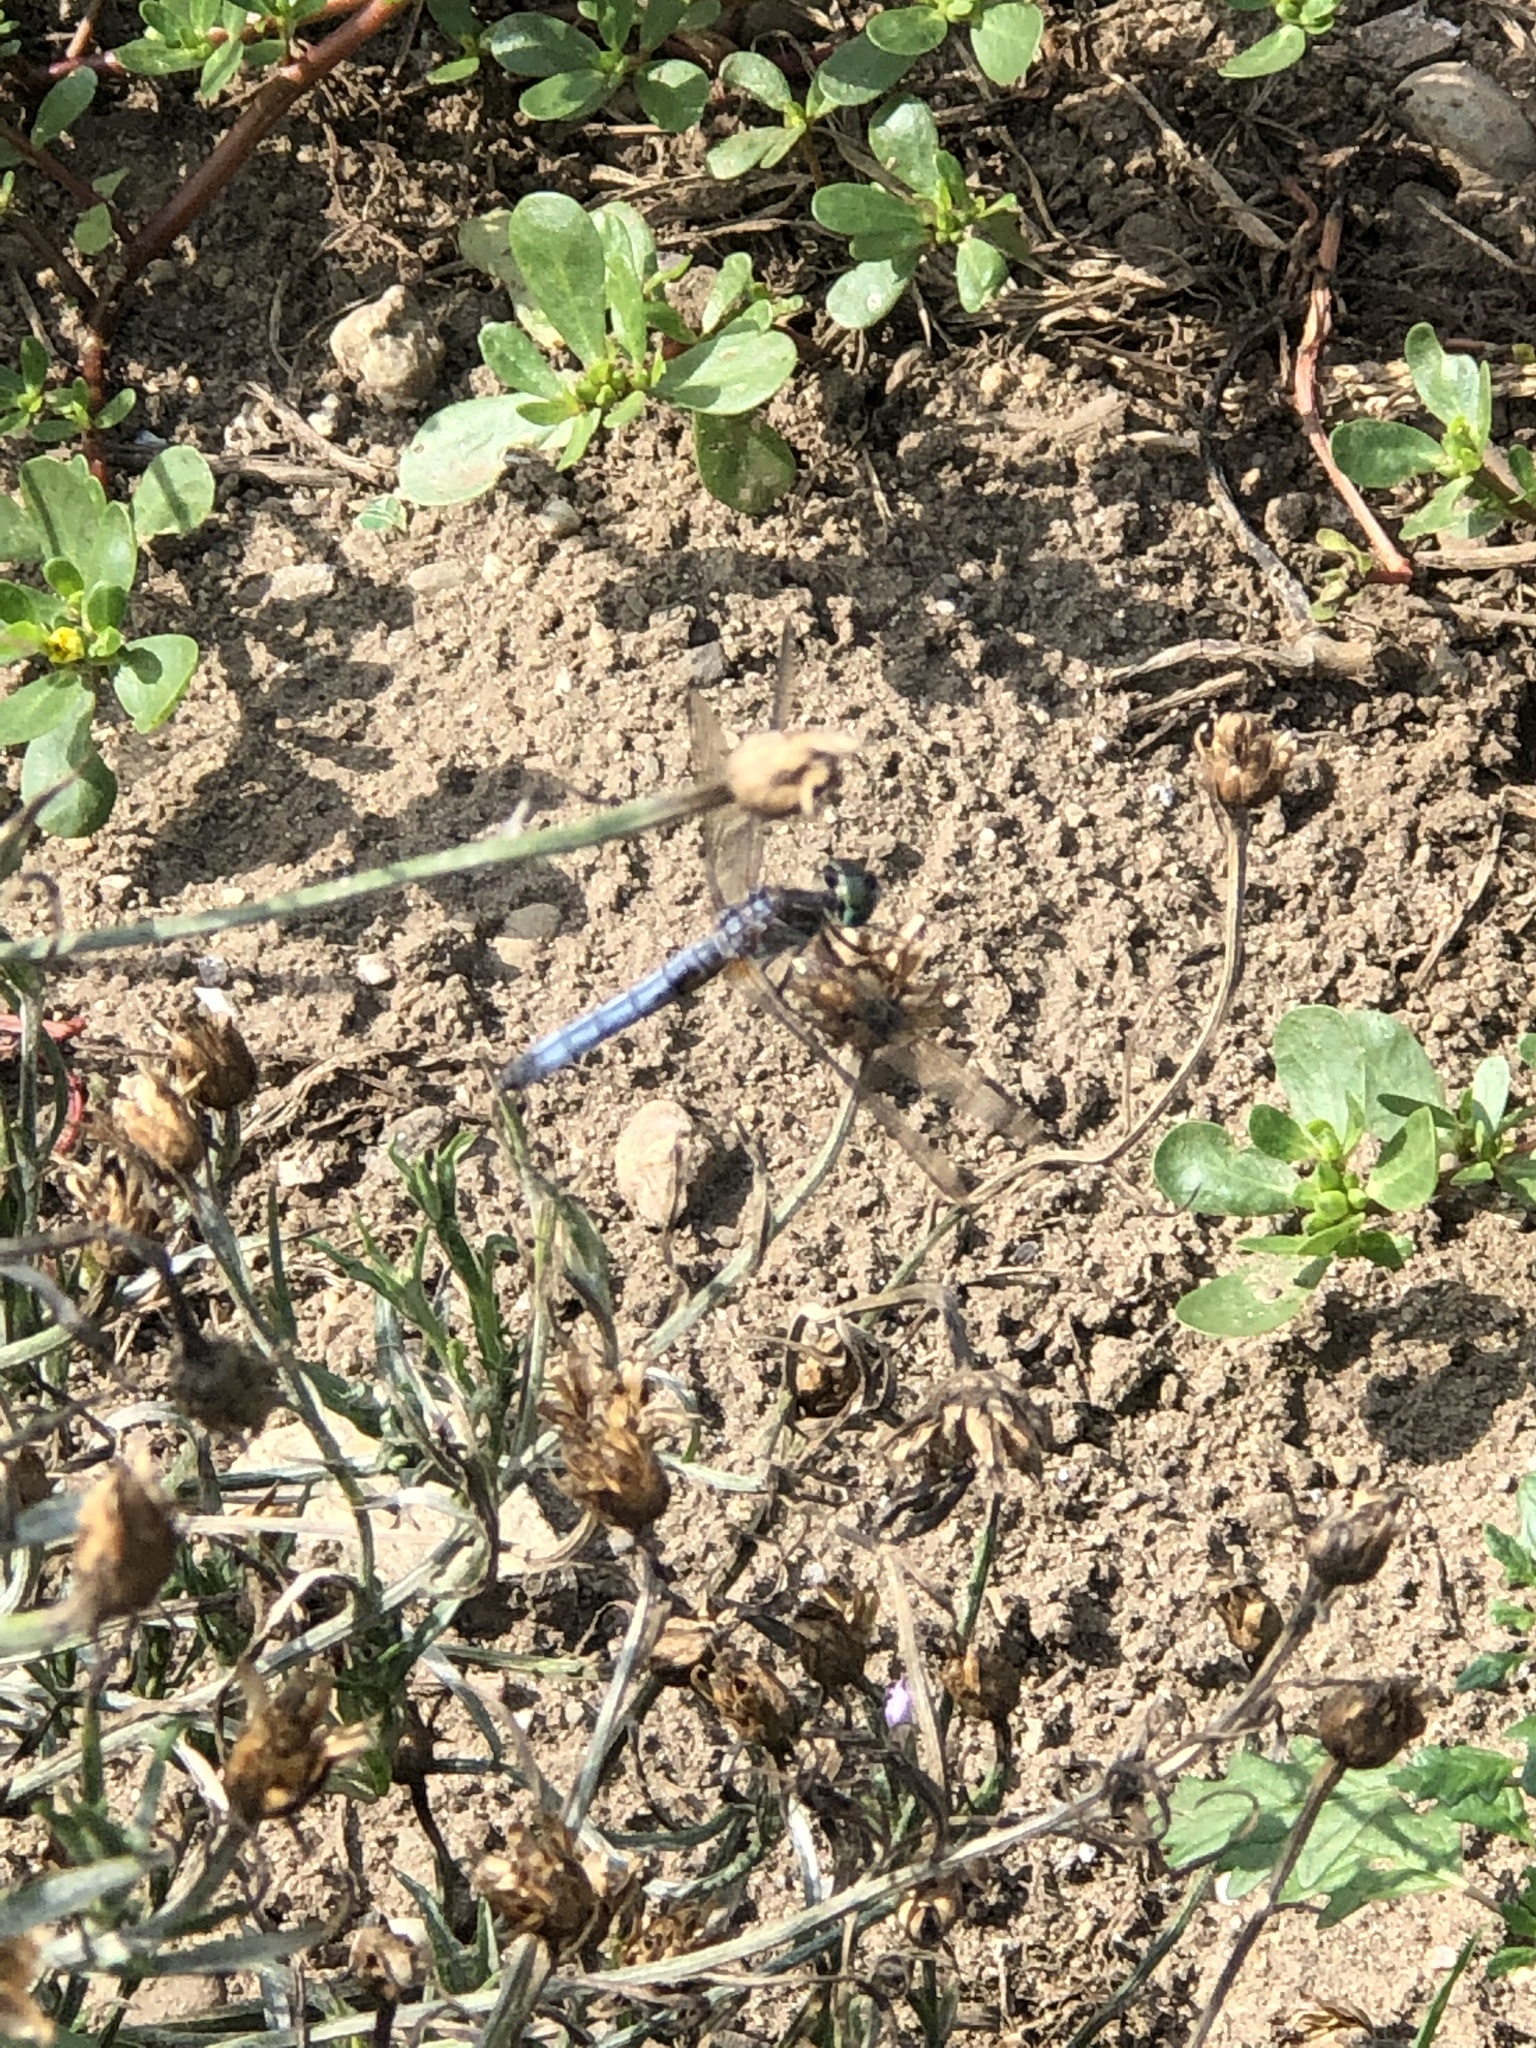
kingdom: Animalia
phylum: Arthropoda
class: Insecta
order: Odonata
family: Libellulidae
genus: Pachydiplax
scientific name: Pachydiplax longipennis
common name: Blue dasher
